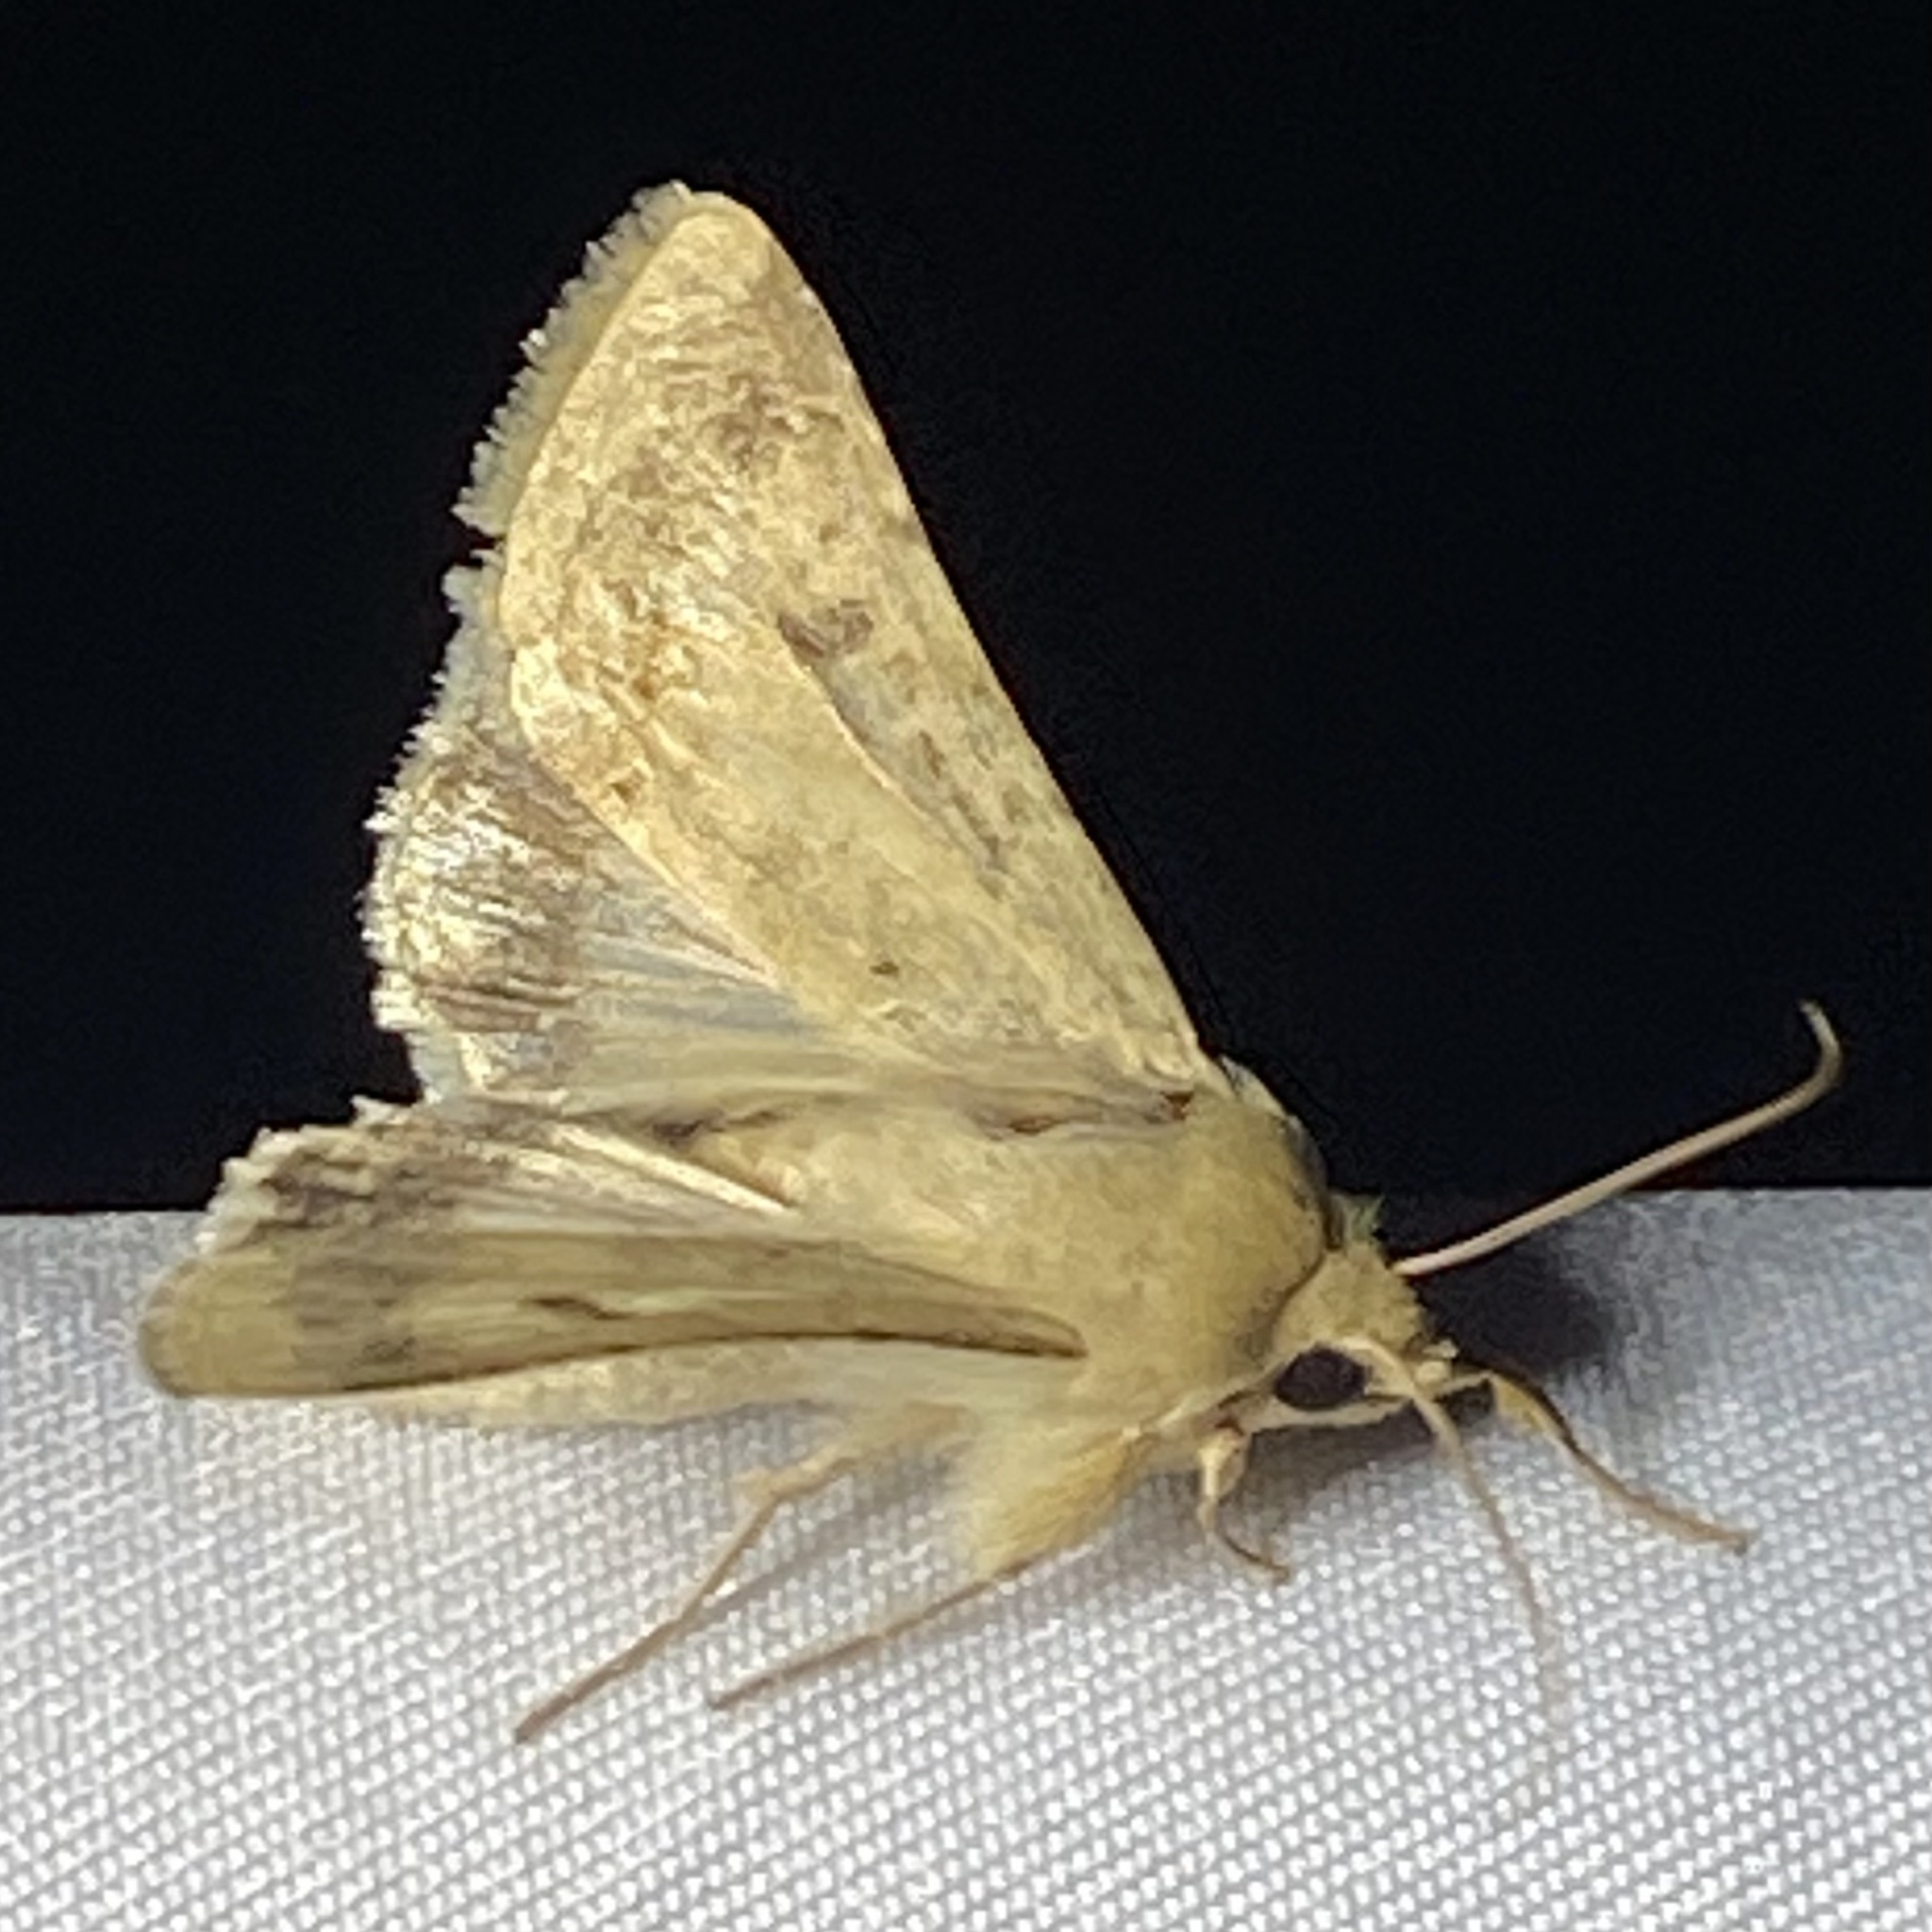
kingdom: Animalia
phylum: Arthropoda
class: Insecta
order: Lepidoptera
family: Noctuidae
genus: Helicoverpa
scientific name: Helicoverpa zea
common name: Bollworm
